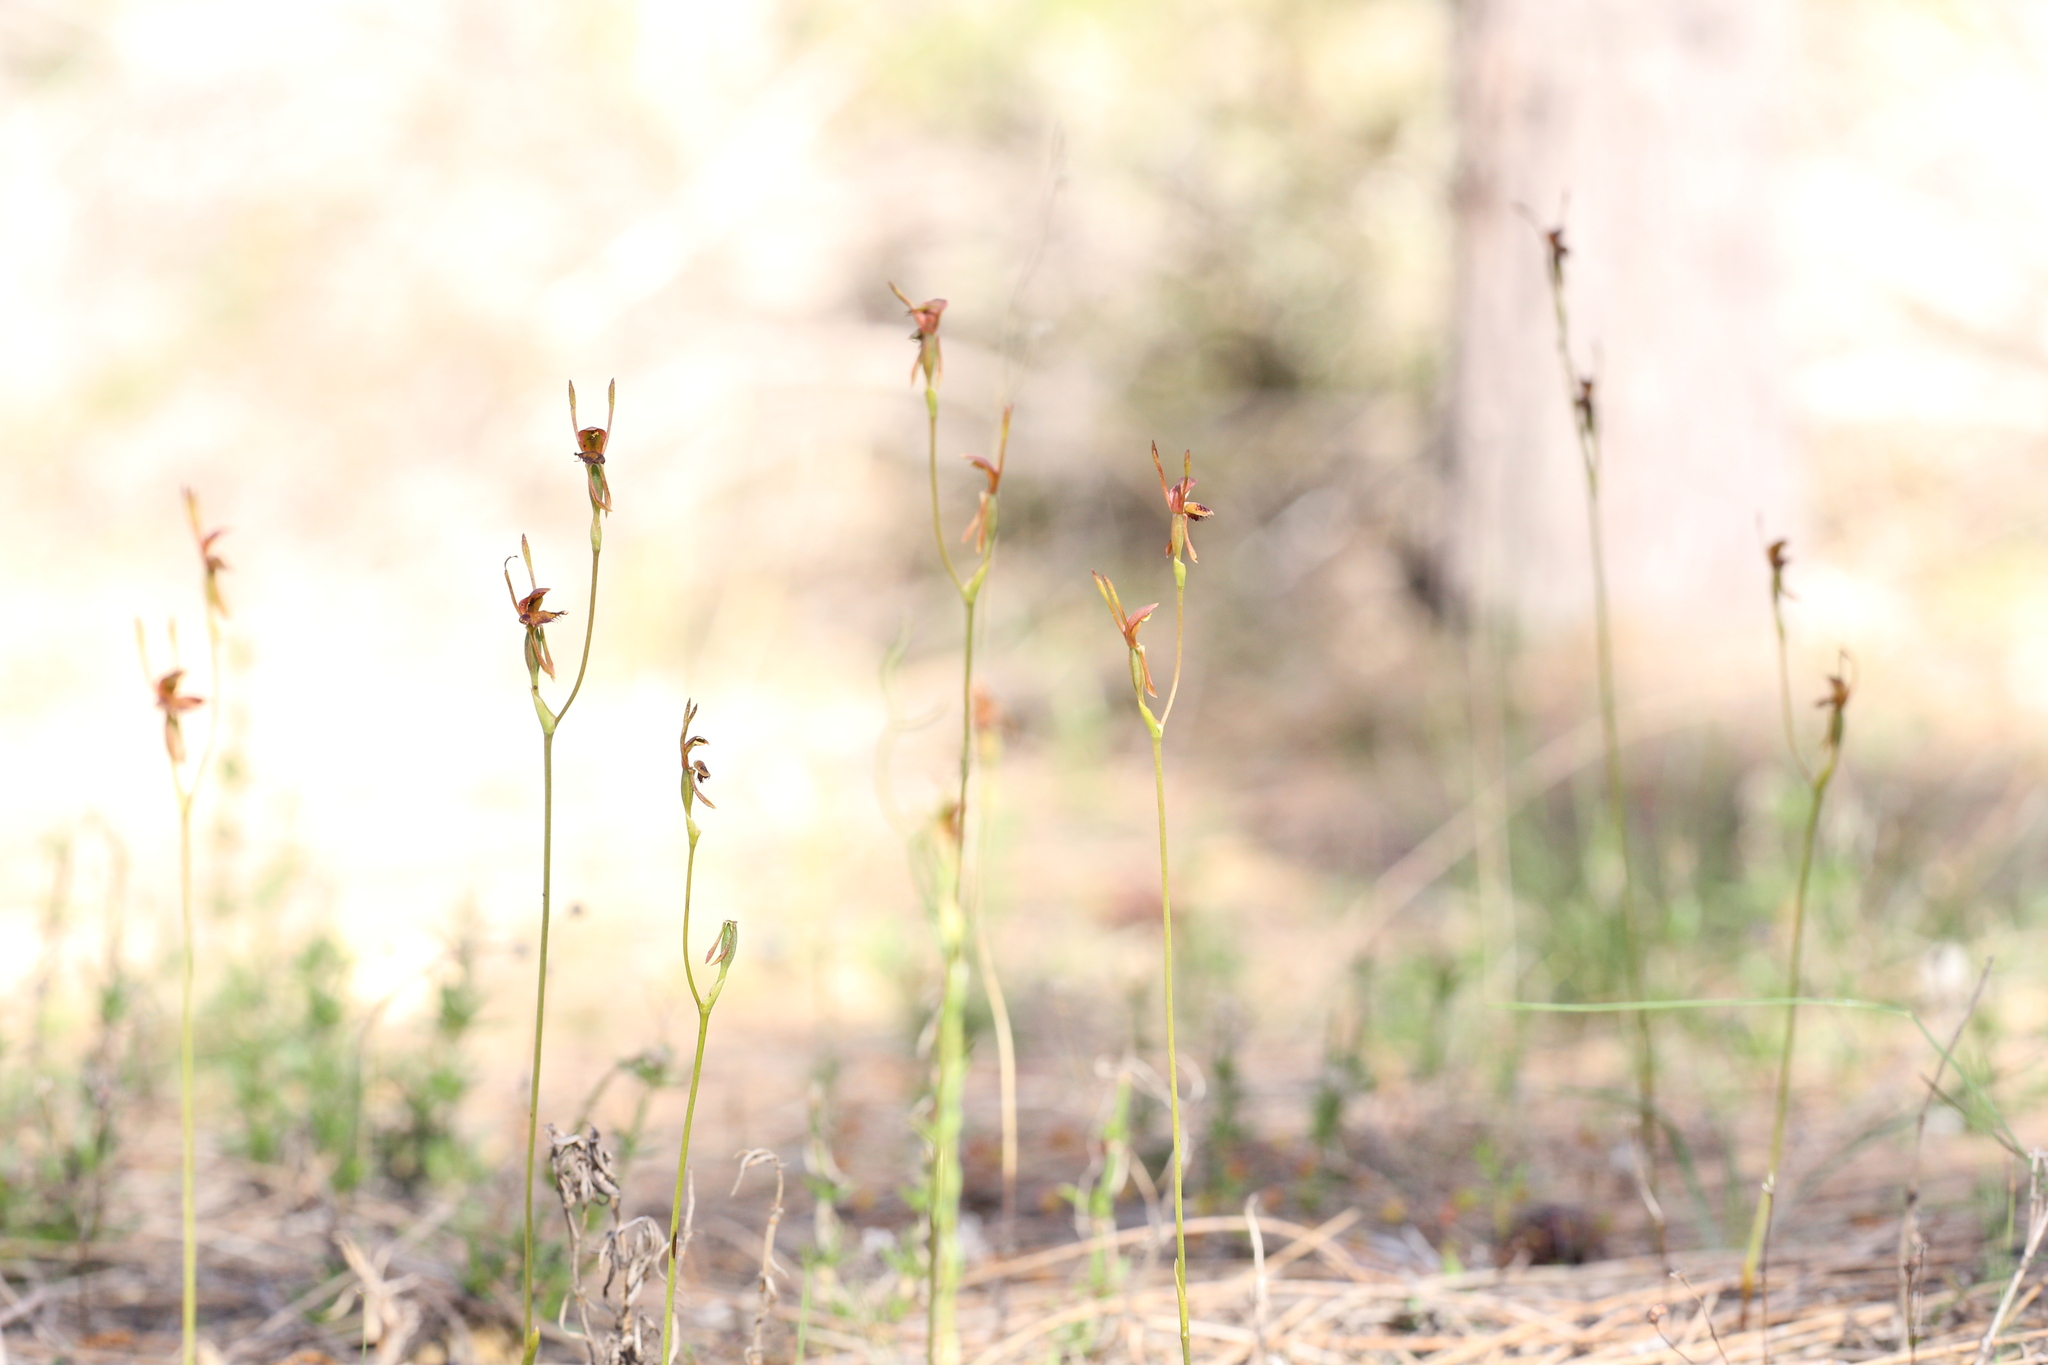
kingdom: Plantae
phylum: Tracheophyta
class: Liliopsida
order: Asparagales
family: Orchidaceae
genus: Leporella
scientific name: Leporella fimbriata
